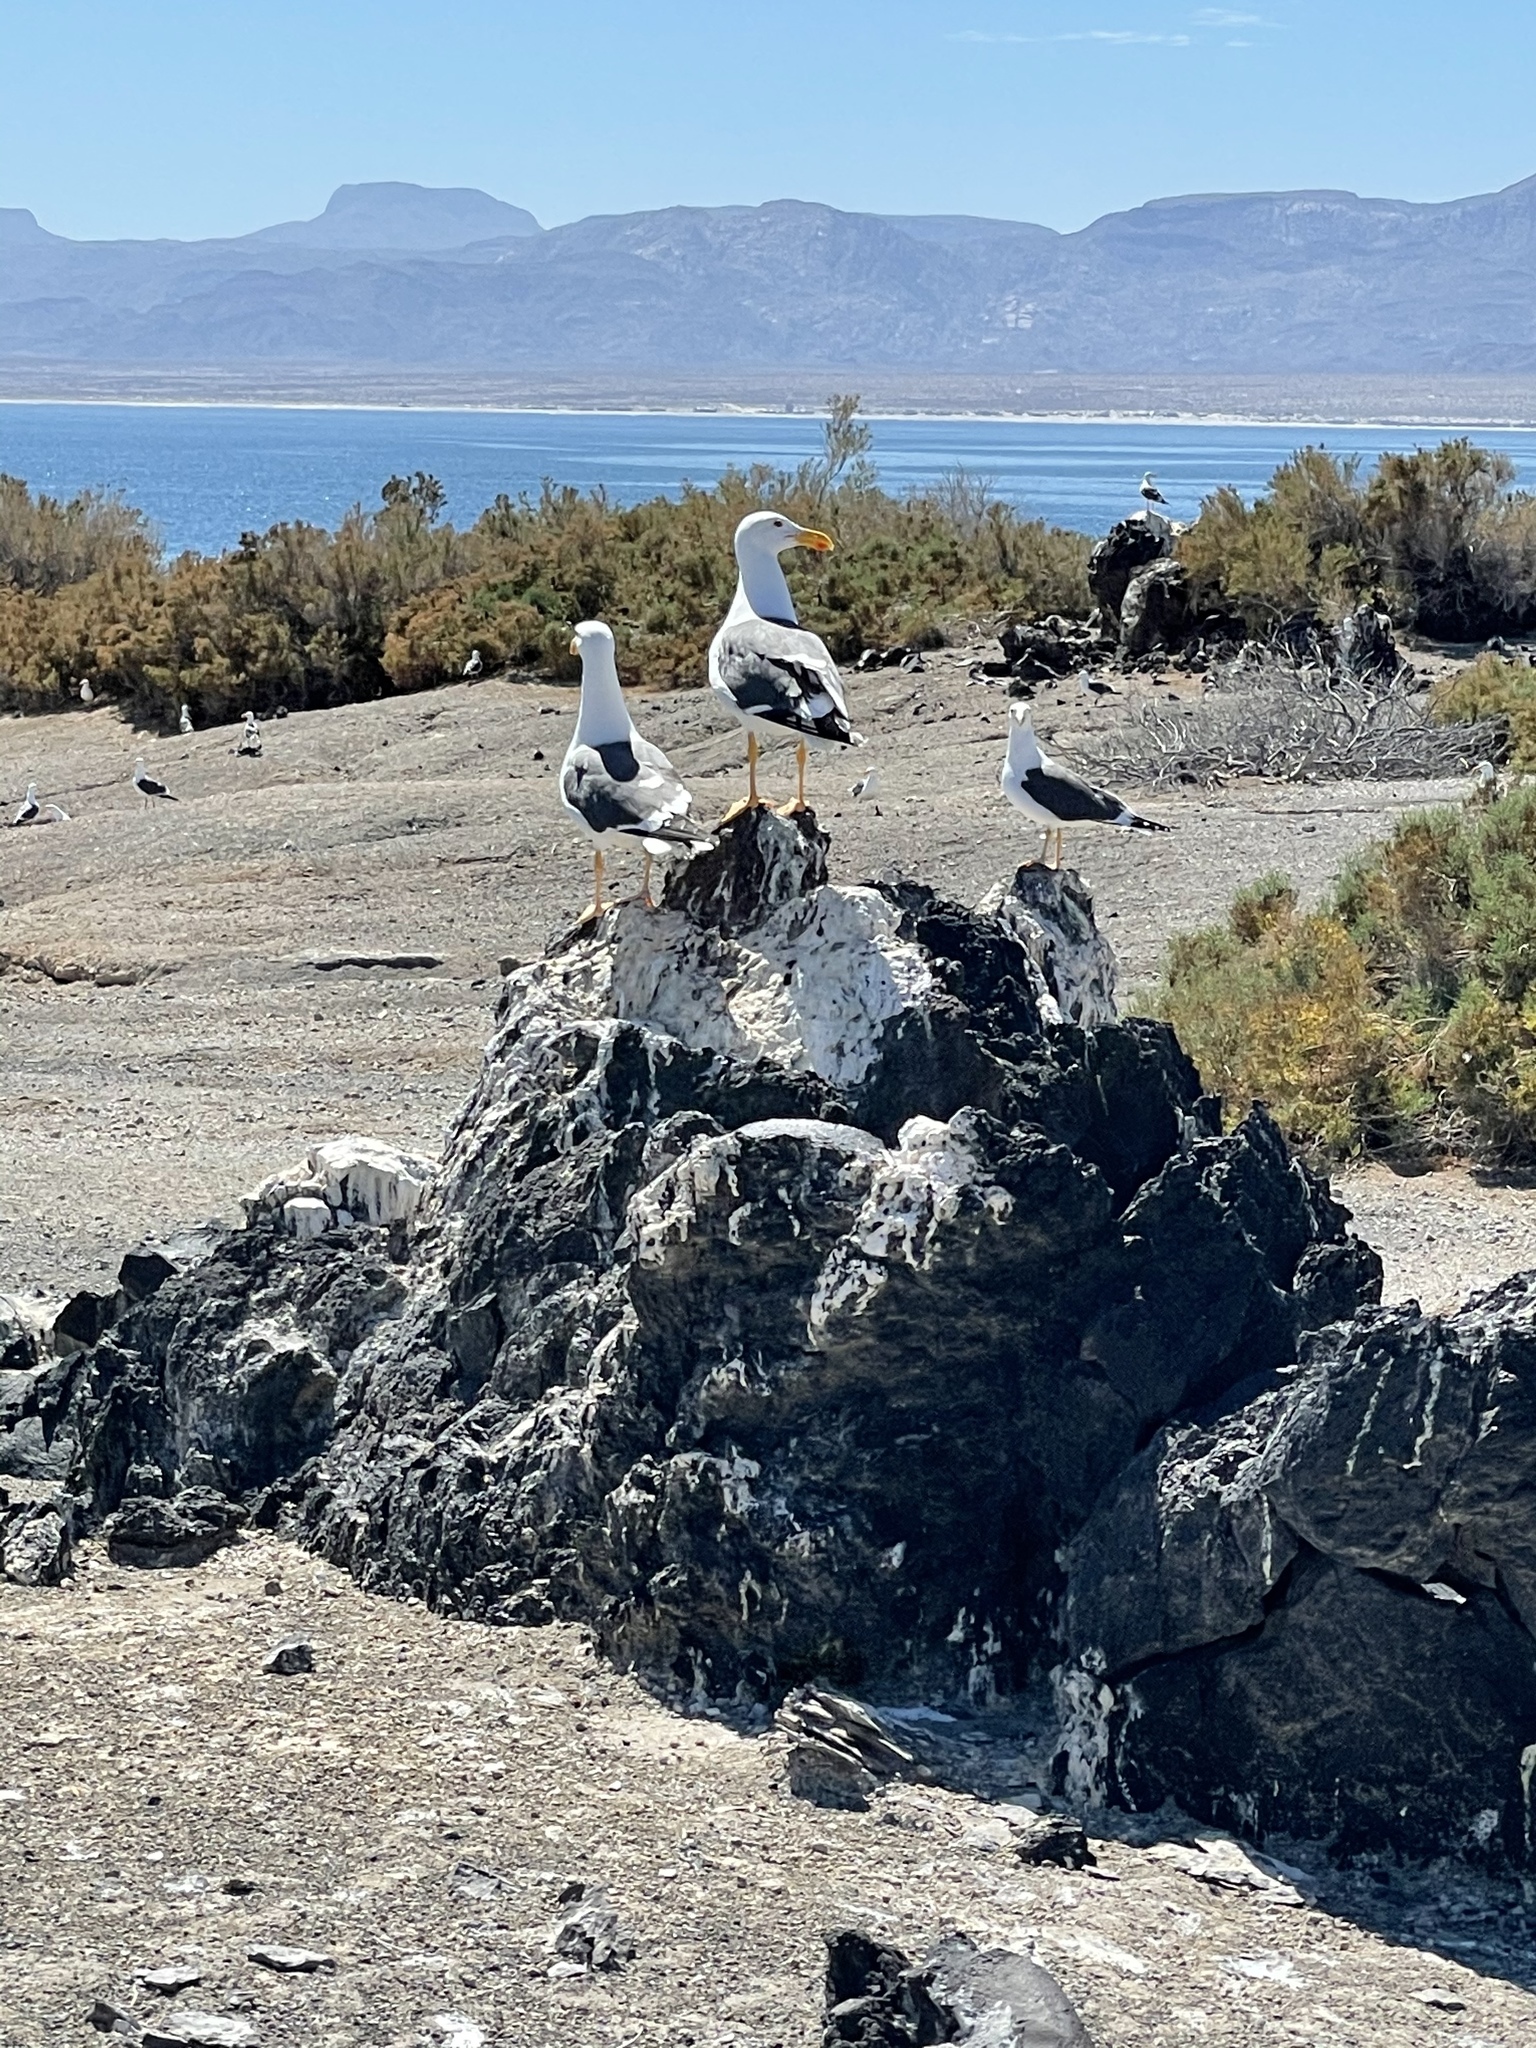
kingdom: Animalia
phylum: Chordata
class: Aves
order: Charadriiformes
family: Laridae
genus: Larus
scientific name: Larus livens
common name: Yellow-footed gull
